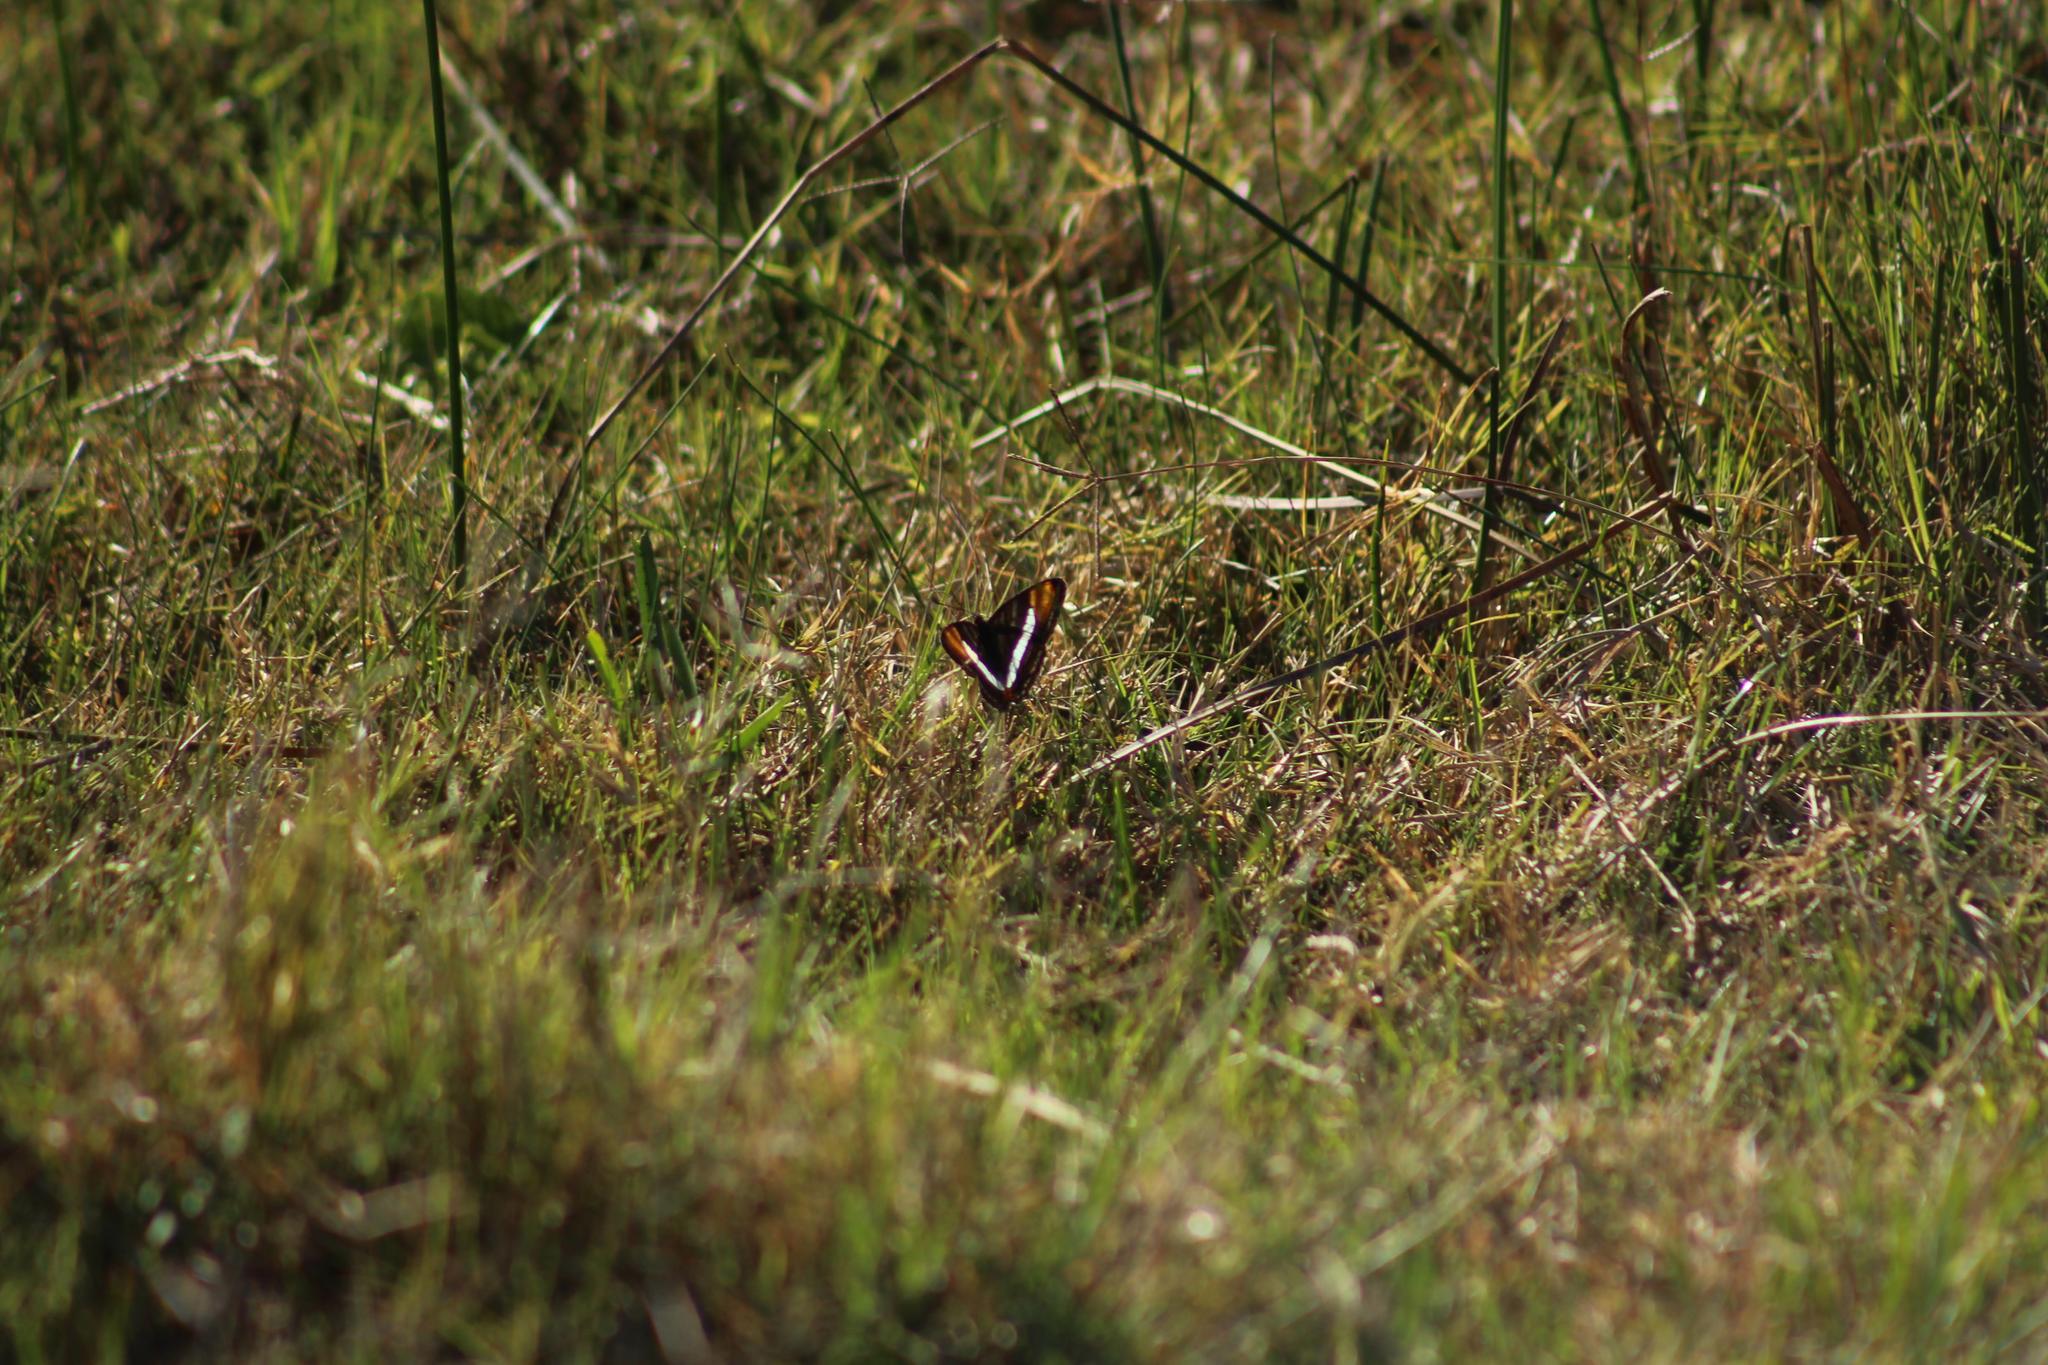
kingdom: Animalia
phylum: Arthropoda
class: Insecta
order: Lepidoptera
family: Nymphalidae
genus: Limenitis
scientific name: Limenitis syma
